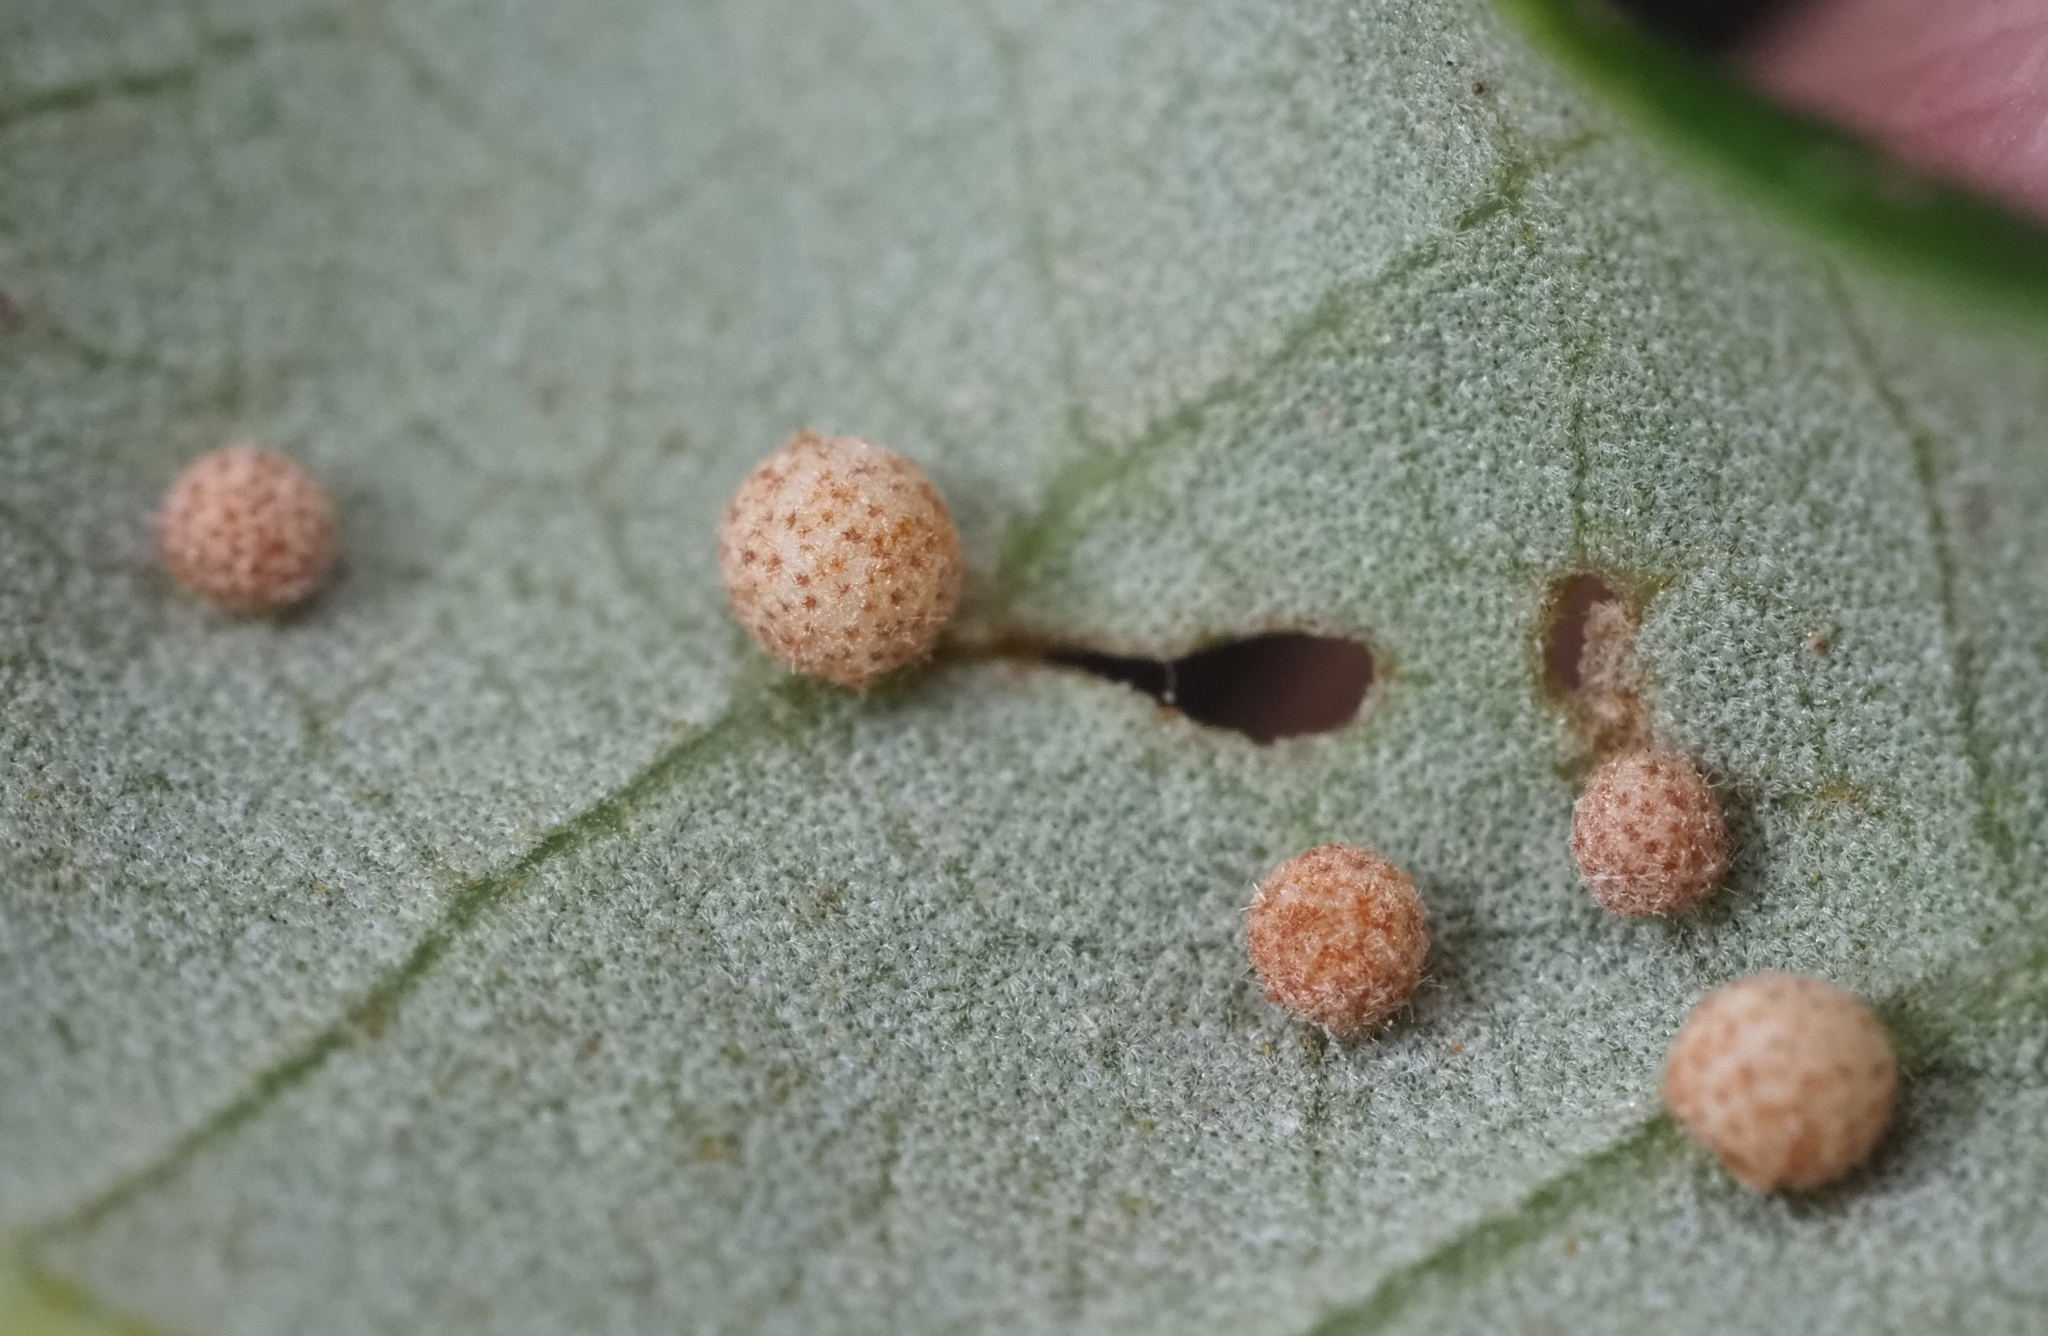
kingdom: Animalia
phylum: Arthropoda
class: Insecta
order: Hymenoptera
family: Cynipidae
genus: Belonocnema
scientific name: Belonocnema kinseyi
